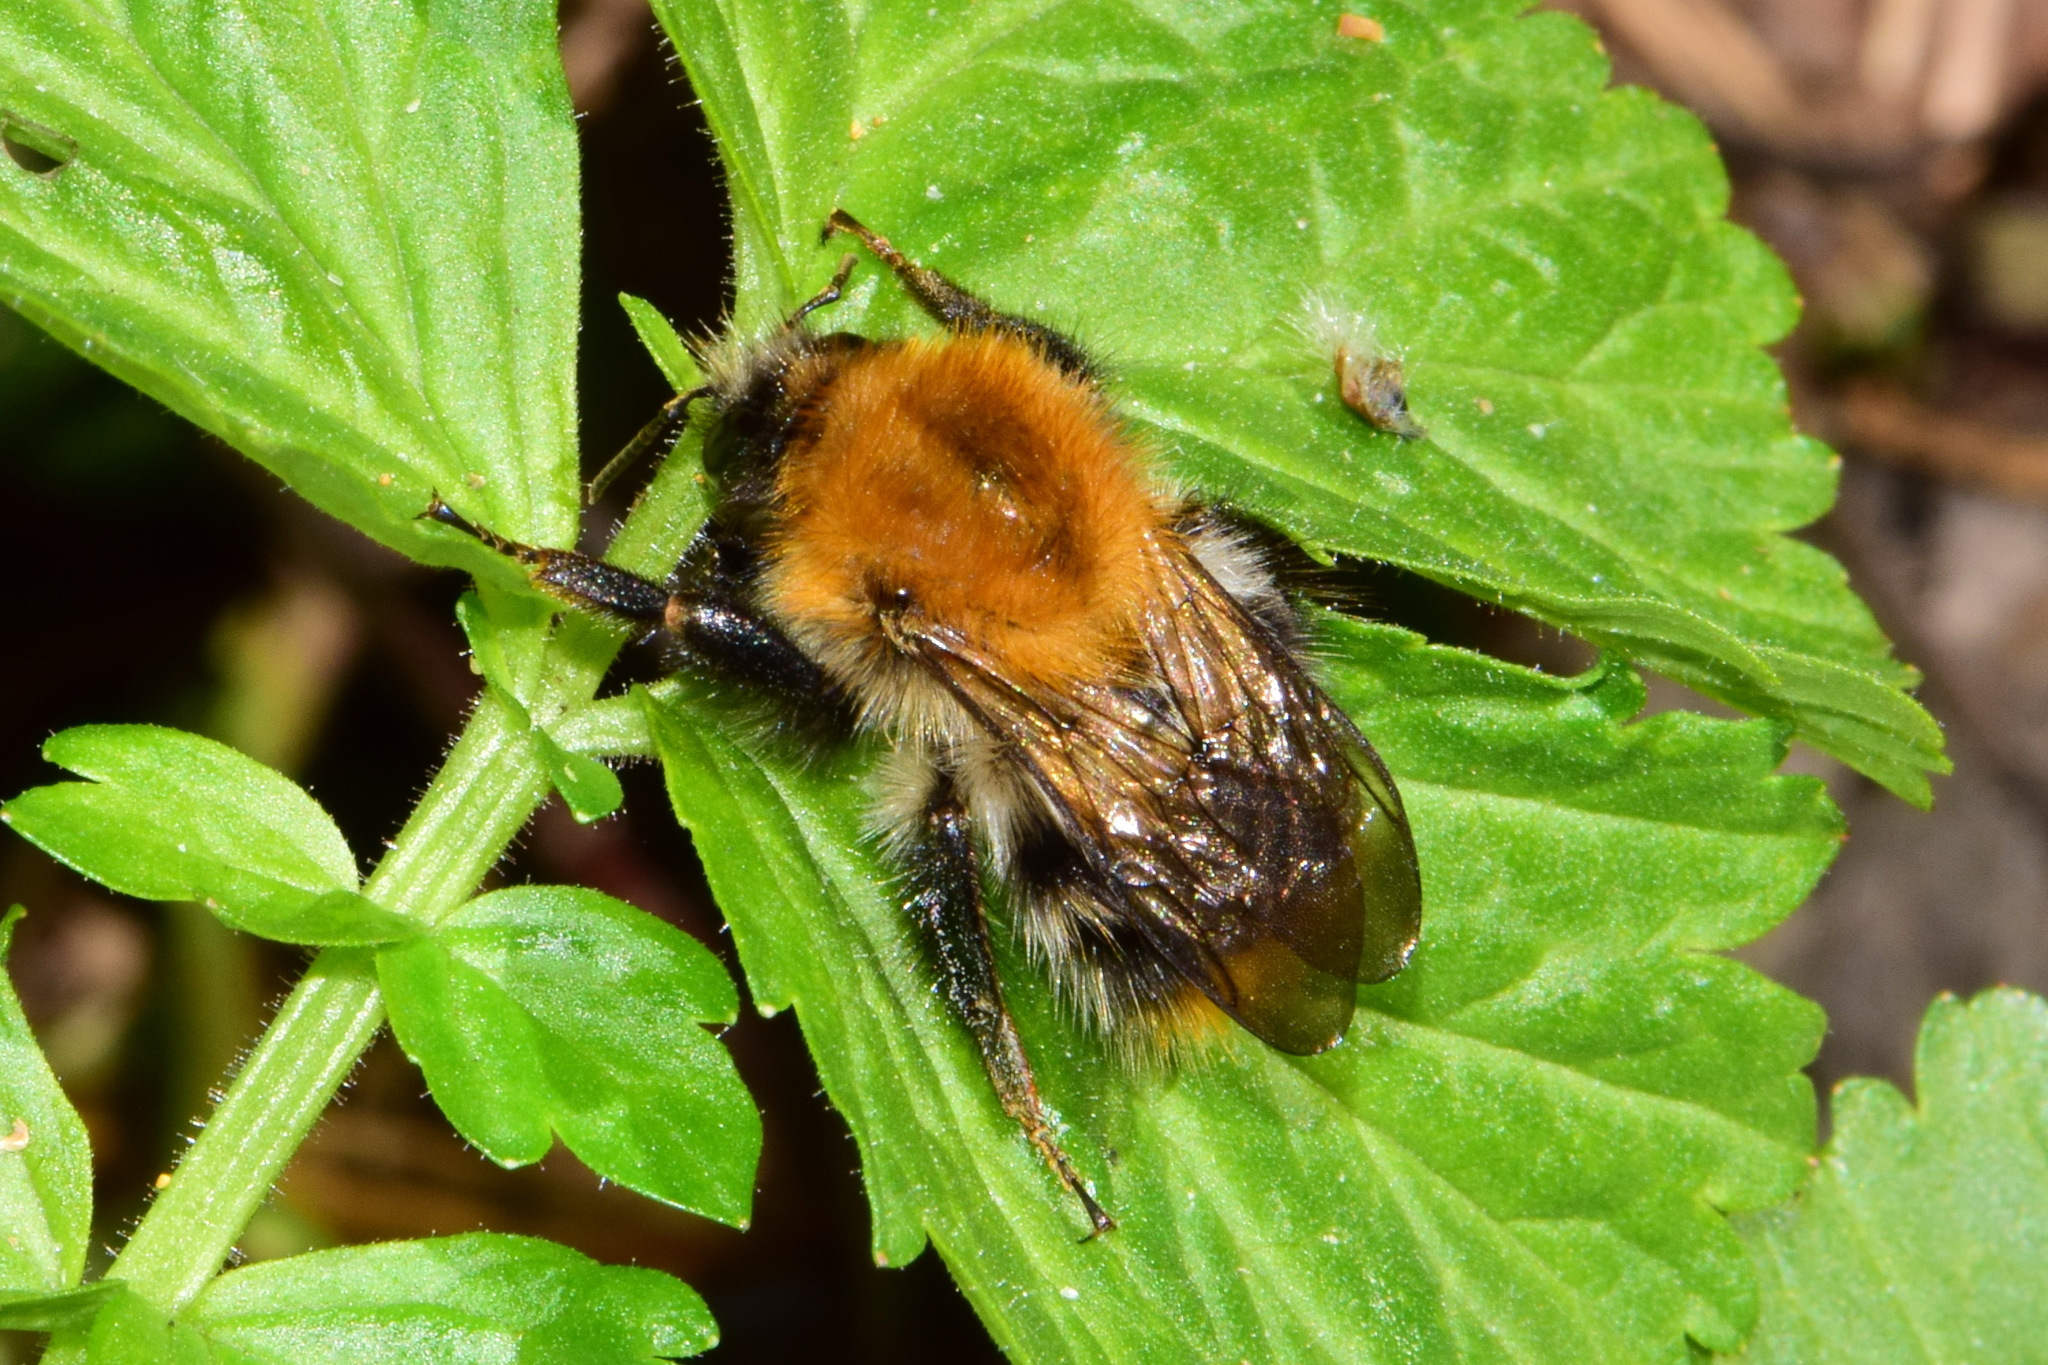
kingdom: Animalia
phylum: Arthropoda
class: Insecta
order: Hymenoptera
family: Apidae
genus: Bombus
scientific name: Bombus pascuorum
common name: Common carder bee
